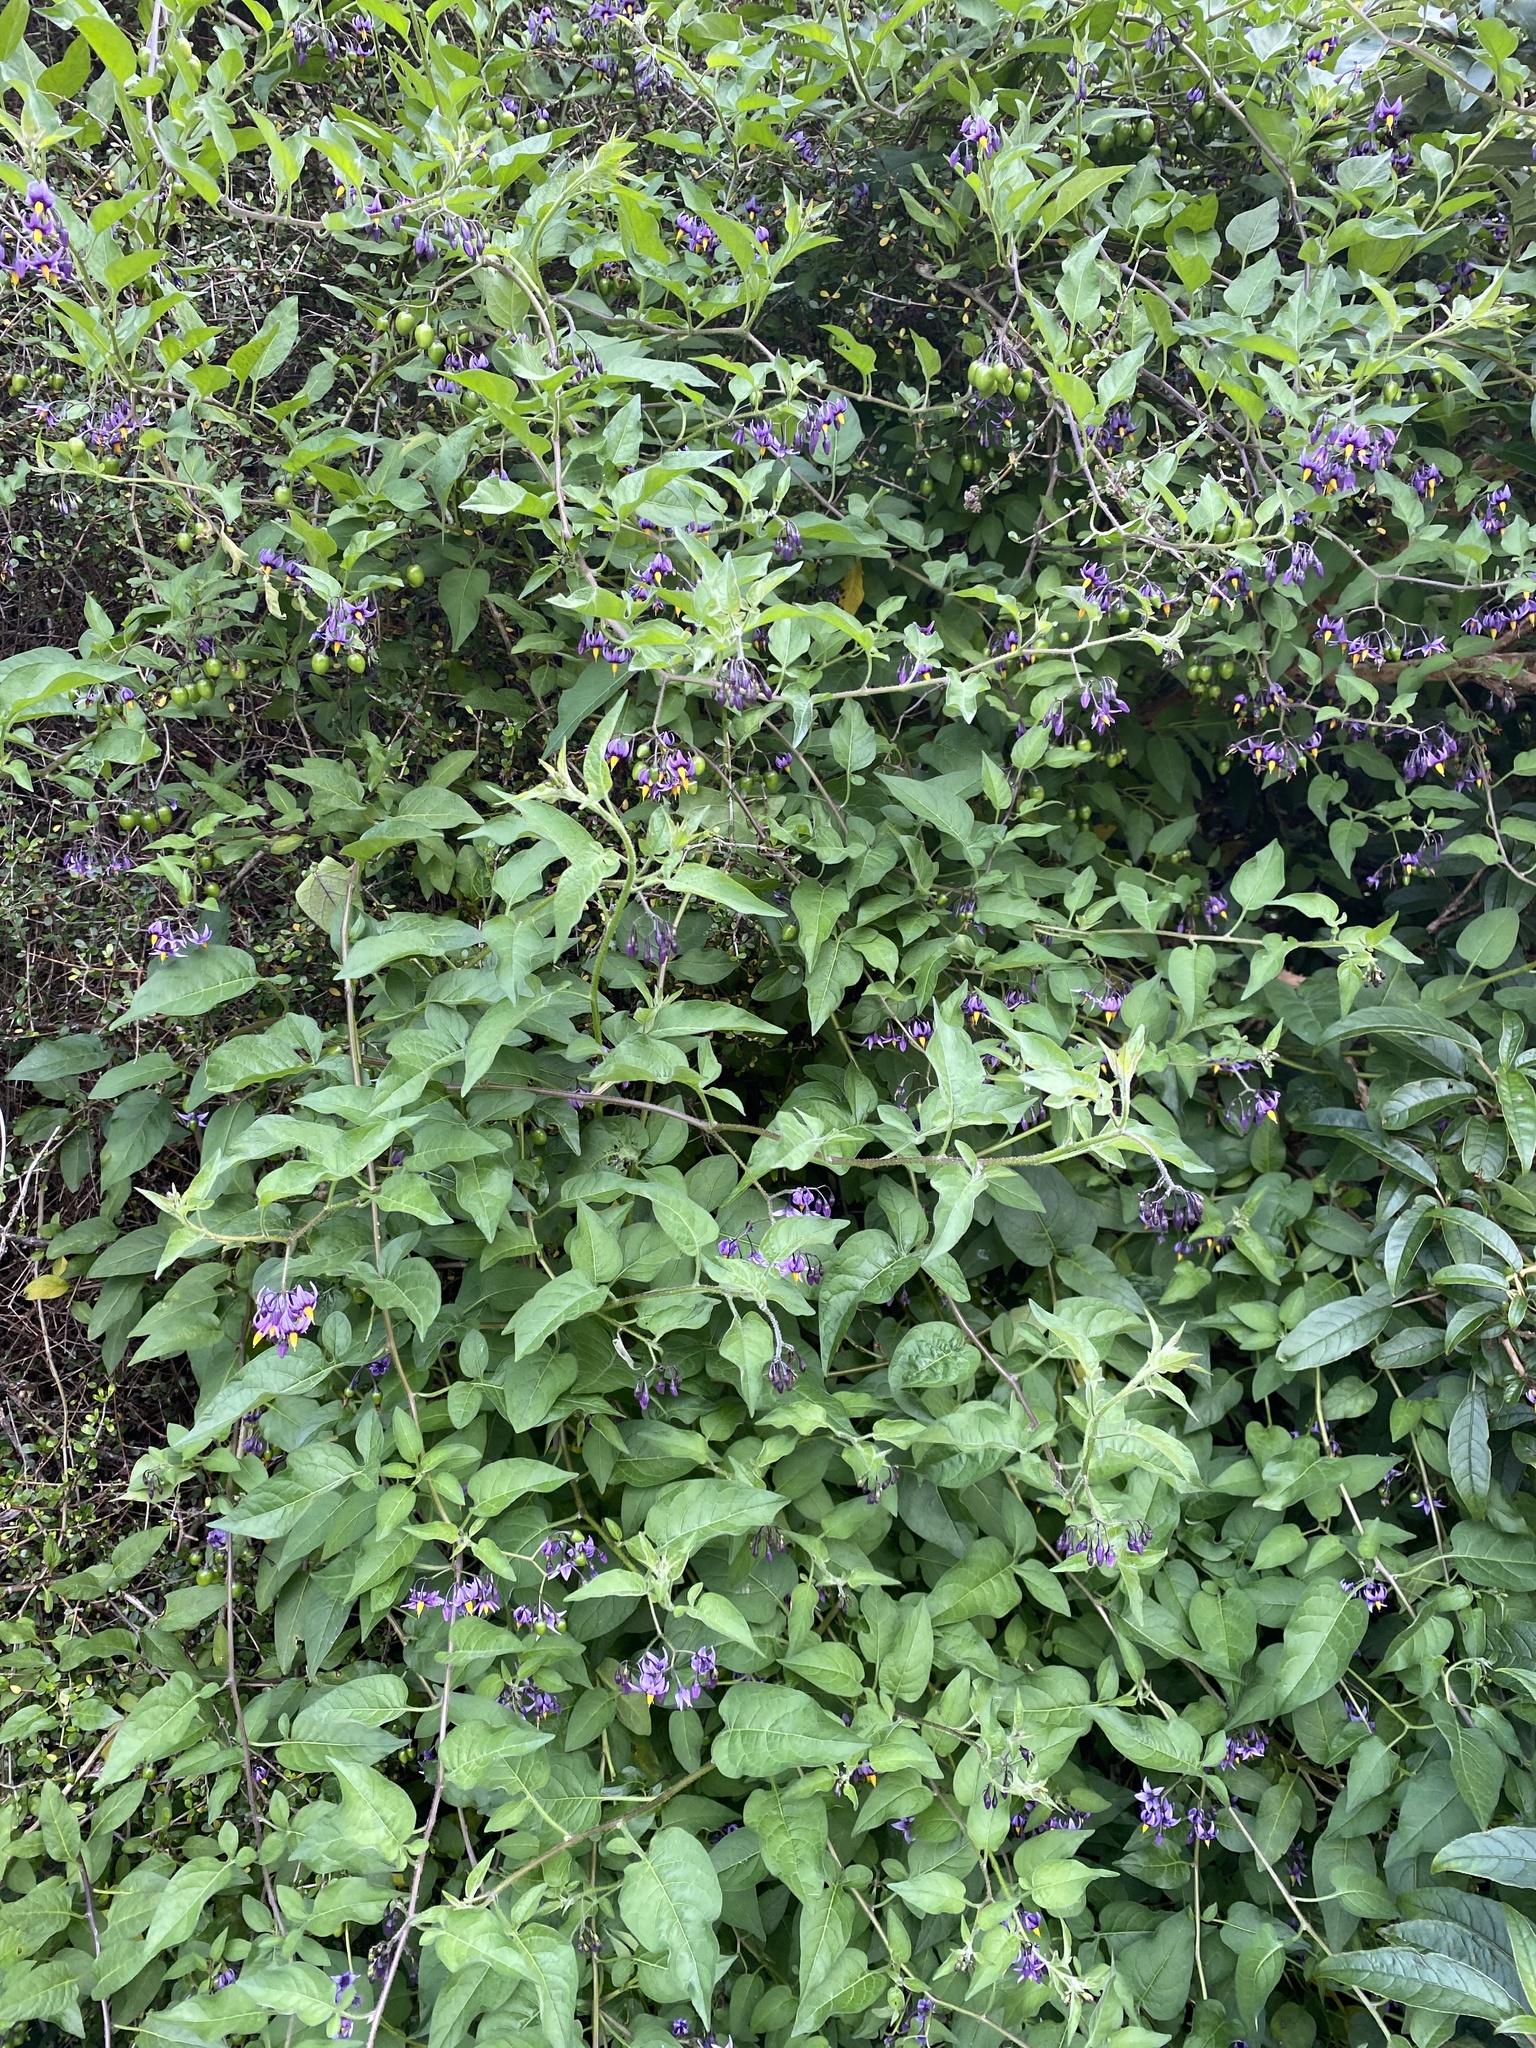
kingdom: Plantae
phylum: Tracheophyta
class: Magnoliopsida
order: Solanales
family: Solanaceae
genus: Solanum
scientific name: Solanum dulcamara
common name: Climbing nightshade
